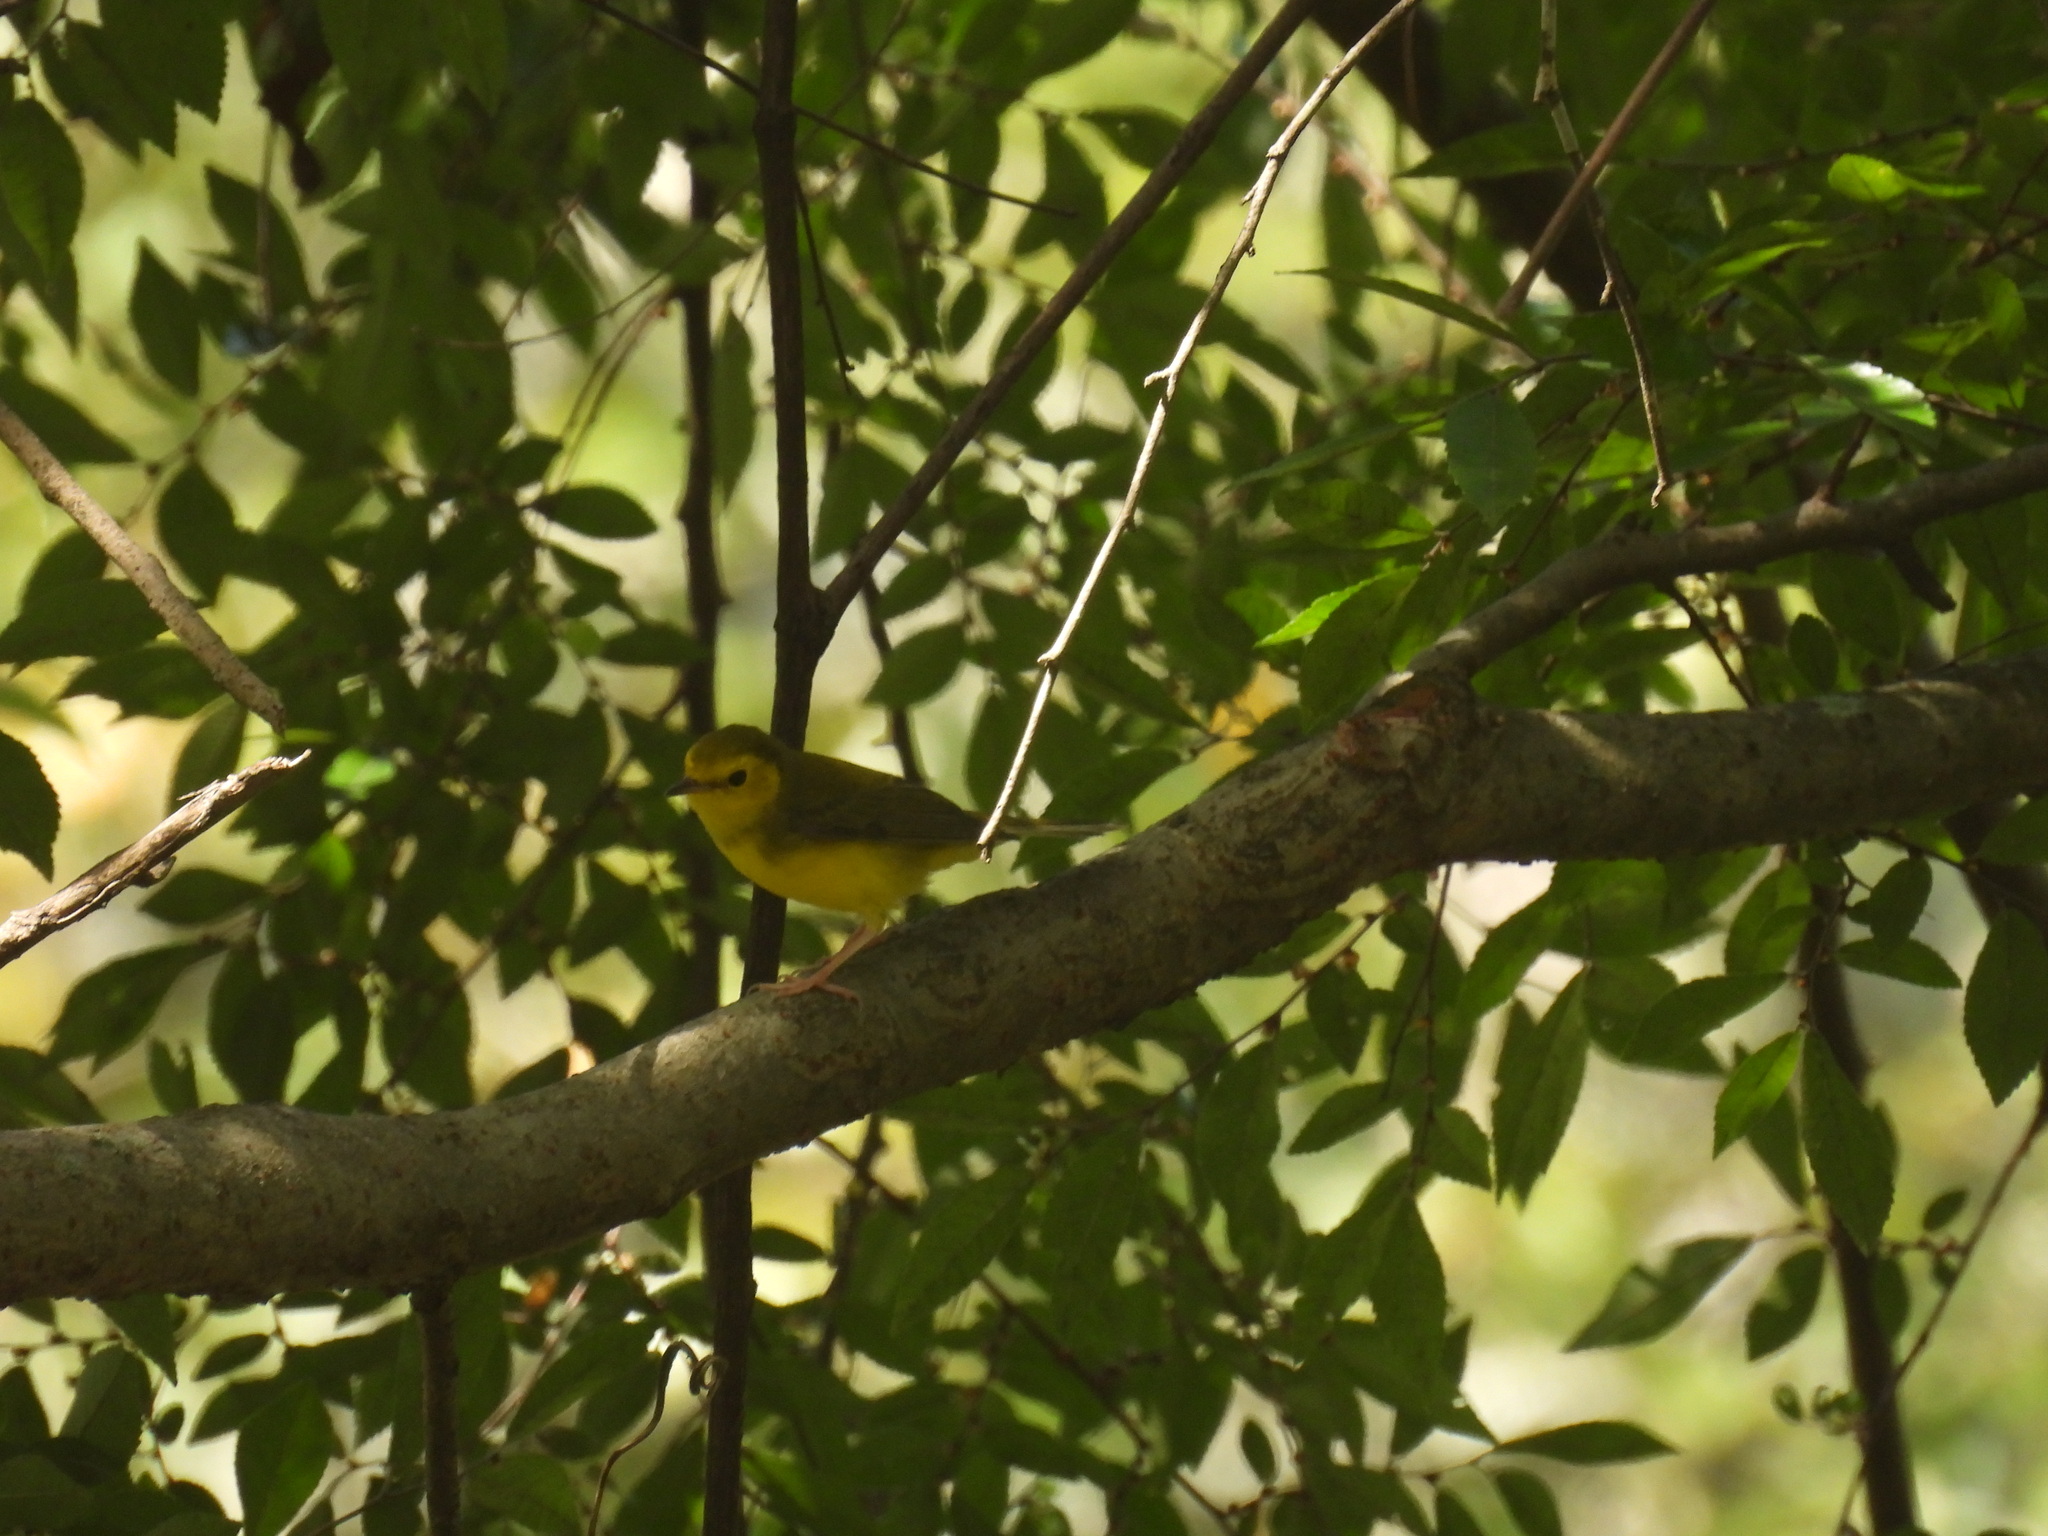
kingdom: Animalia
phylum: Chordata
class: Aves
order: Passeriformes
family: Parulidae
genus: Setophaga
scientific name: Setophaga citrina
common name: Hooded warbler
